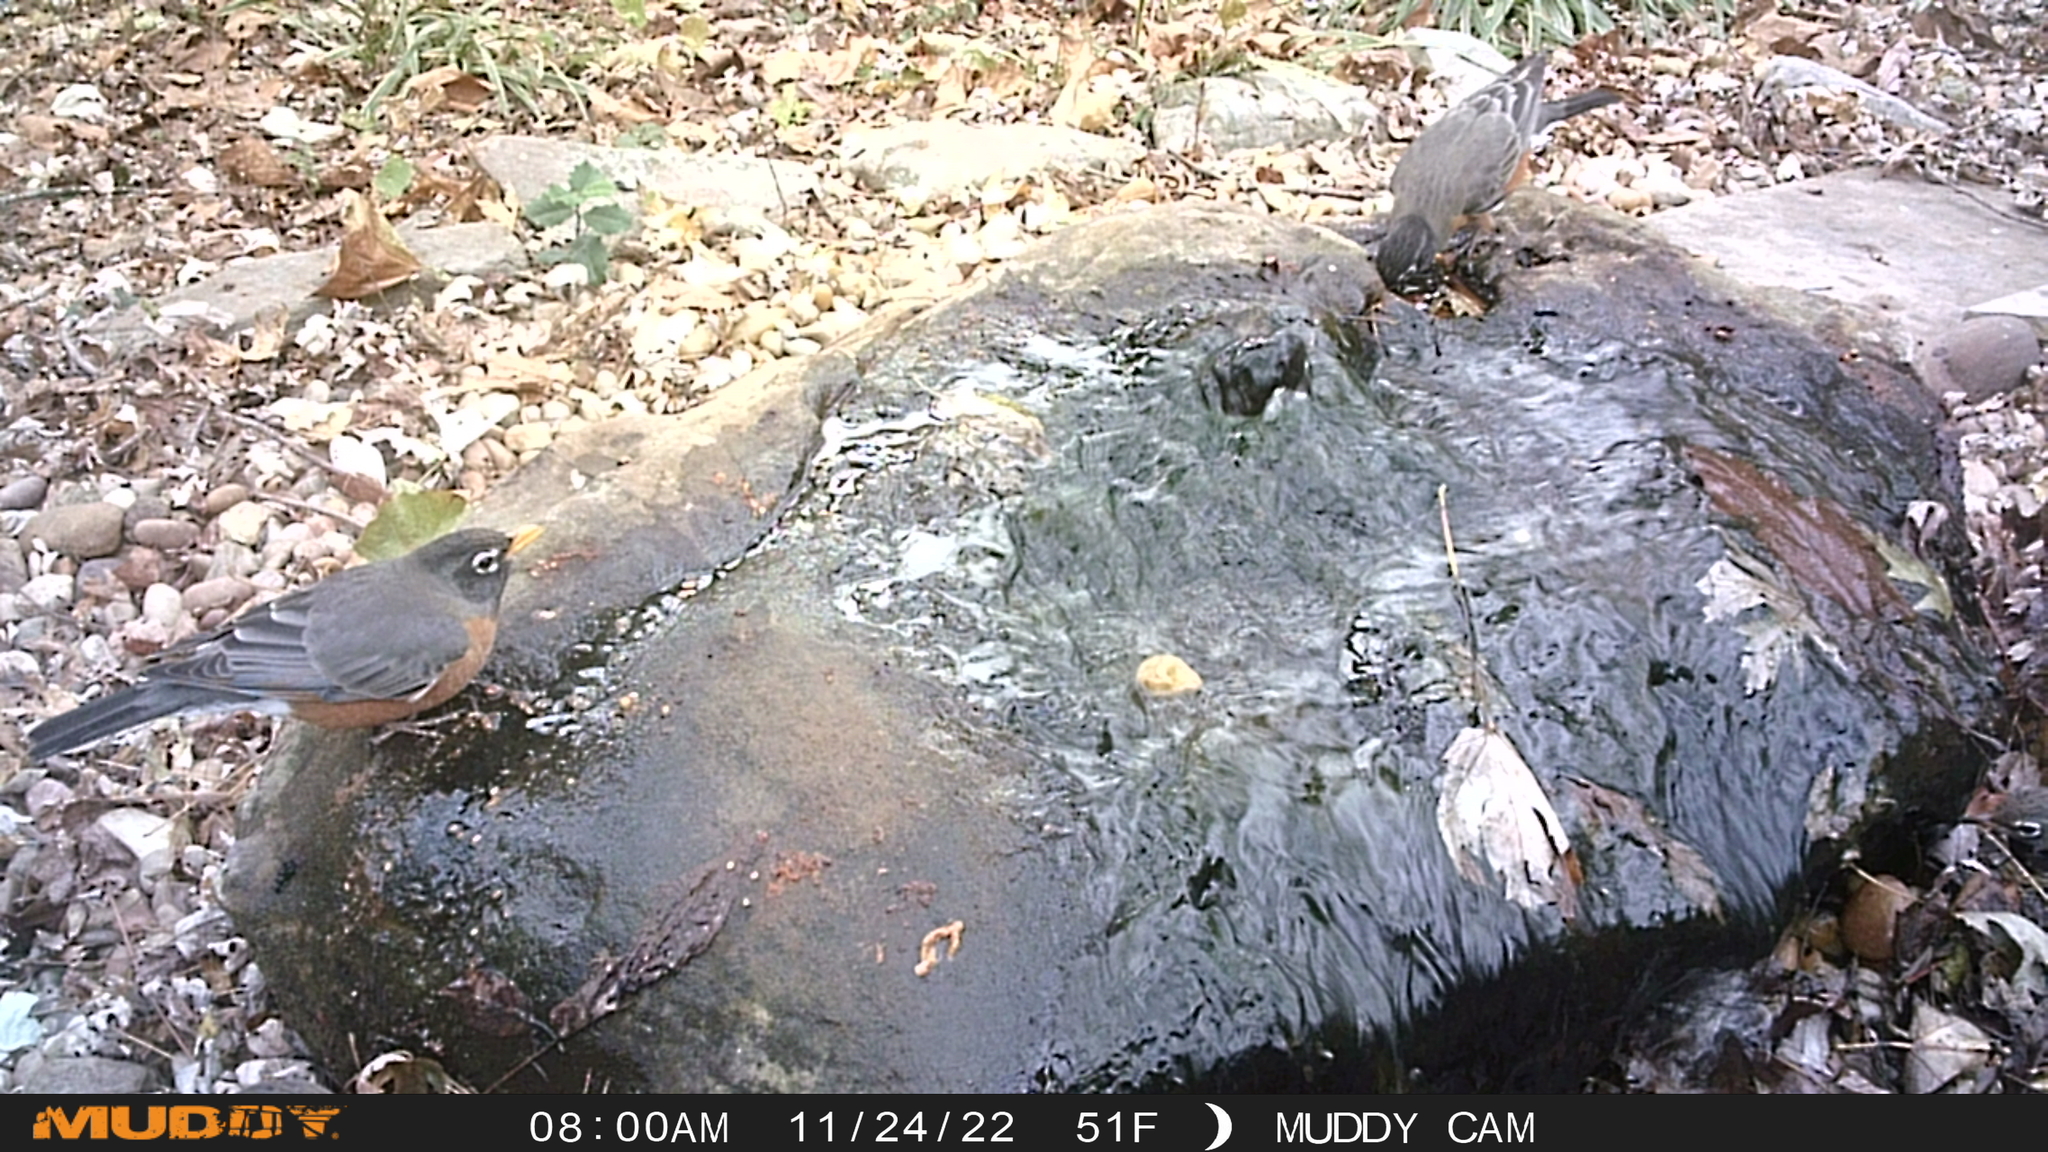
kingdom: Animalia
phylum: Chordata
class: Aves
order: Passeriformes
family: Turdidae
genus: Turdus
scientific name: Turdus migratorius
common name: American robin
